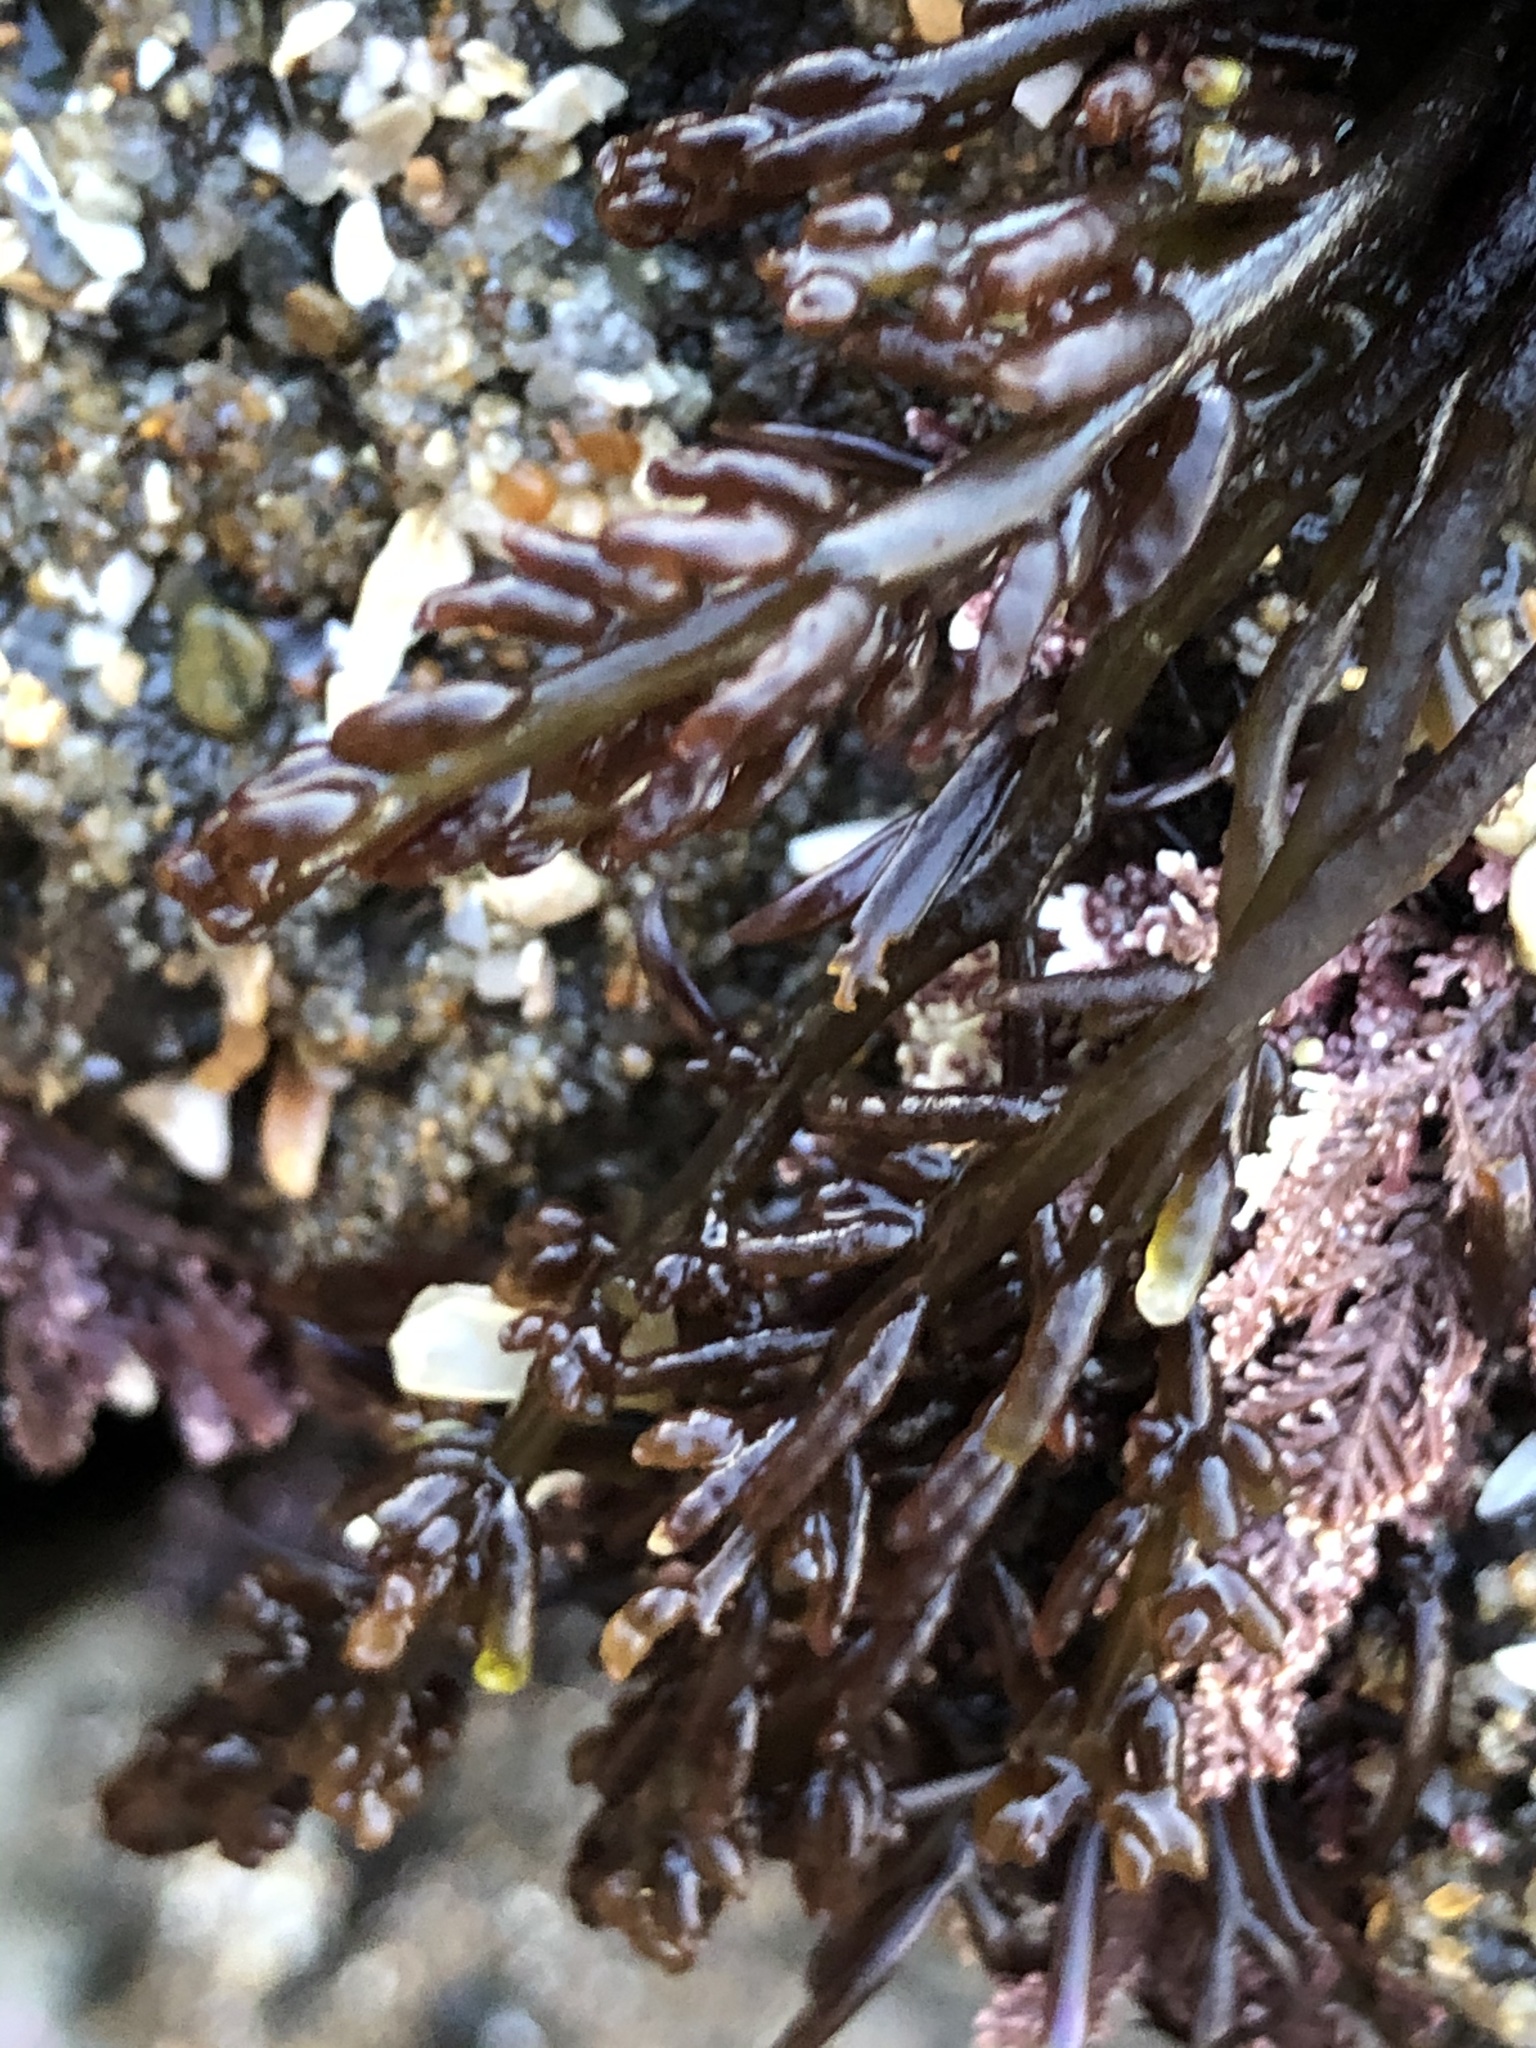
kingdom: Plantae
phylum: Rhodophyta
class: Florideophyceae
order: Rhodymeniales
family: Champiaceae
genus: Neogastroclonium
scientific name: Neogastroclonium subarticulatum
